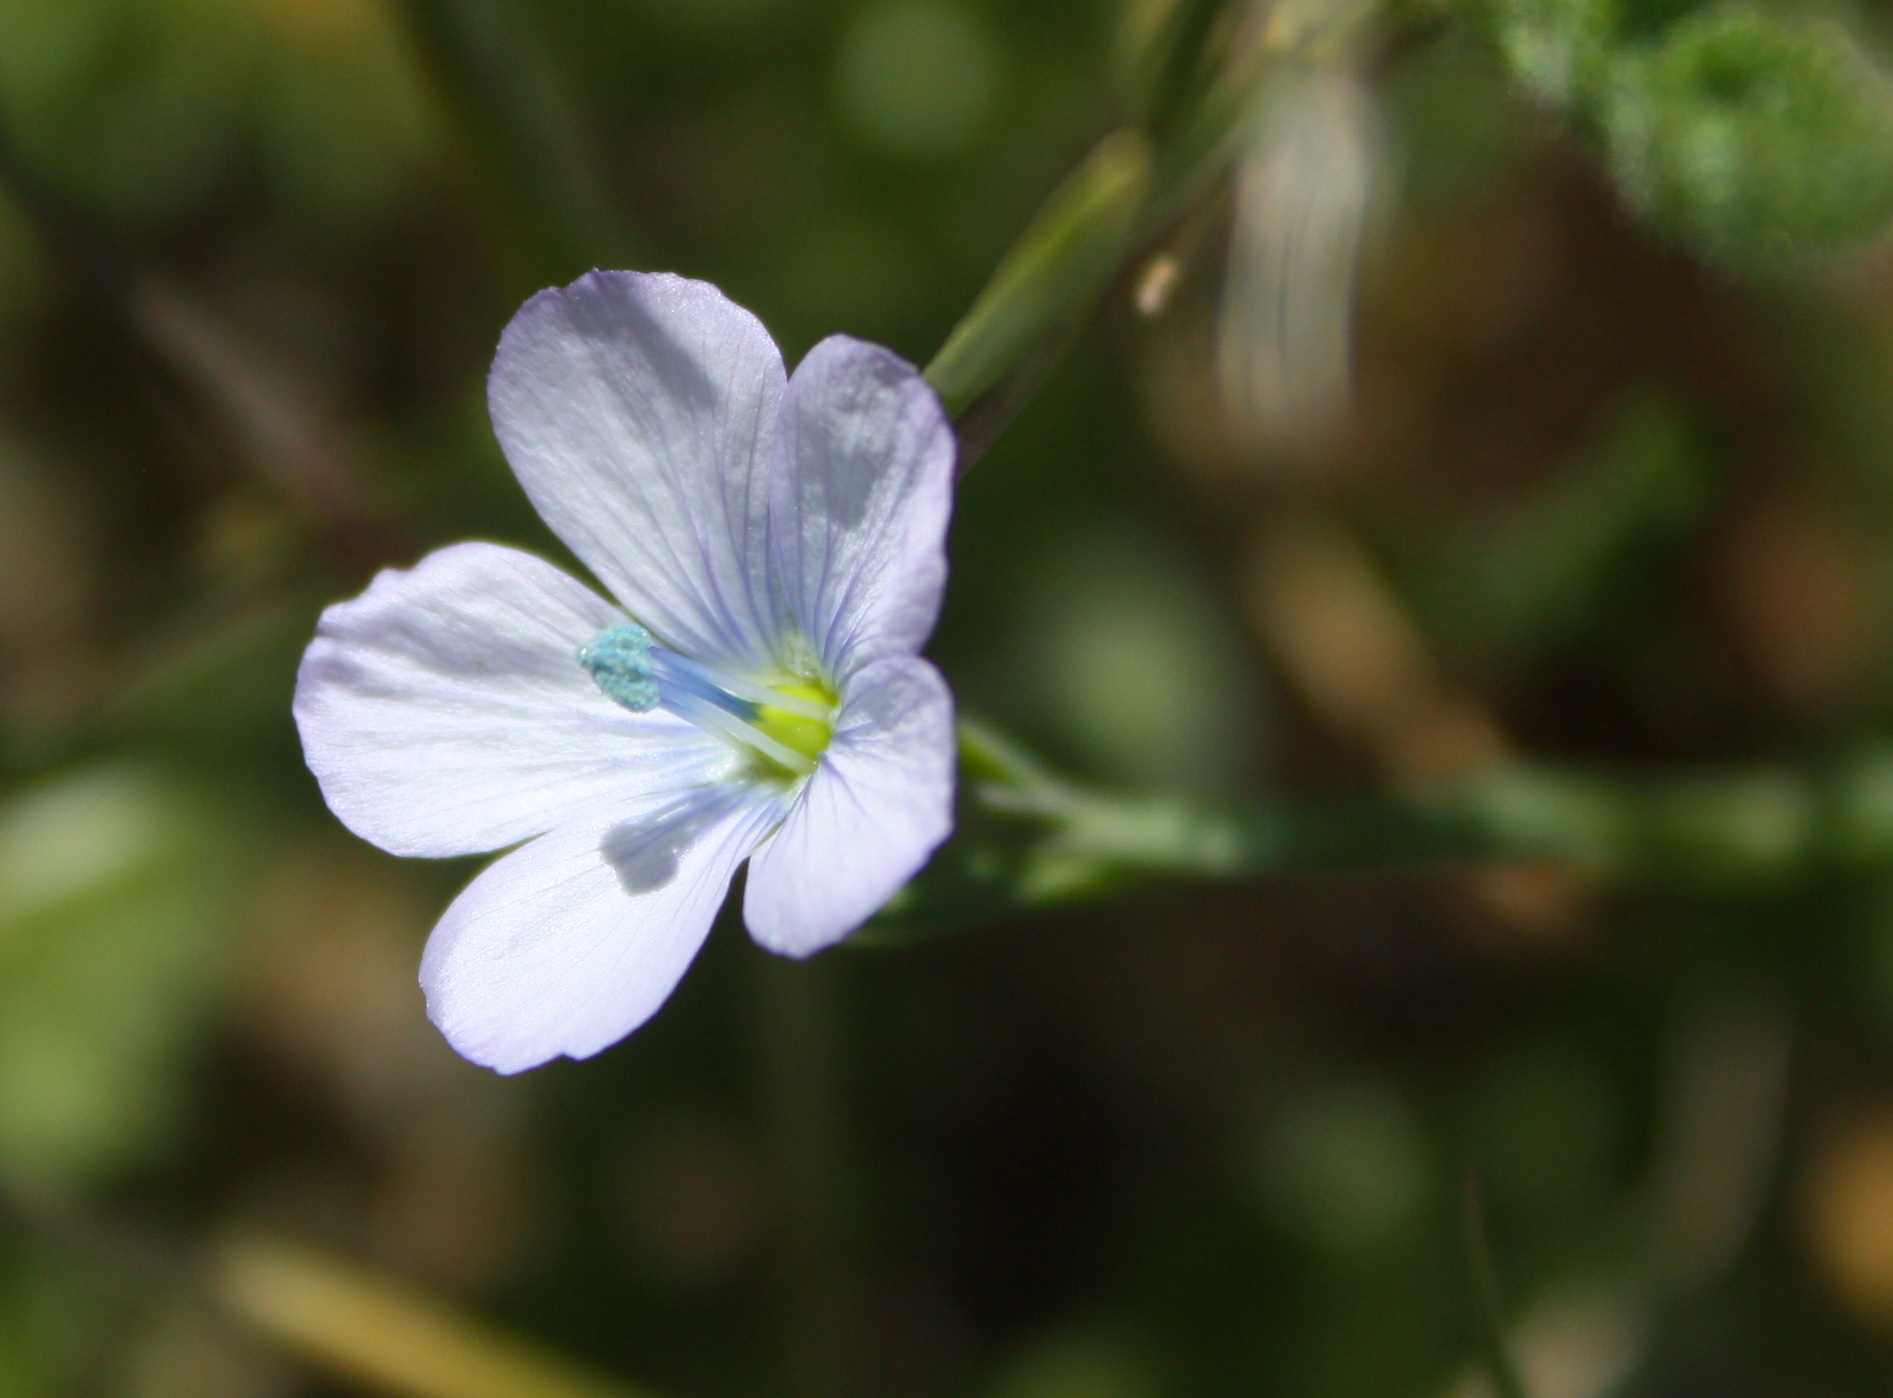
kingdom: Plantae
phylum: Tracheophyta
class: Magnoliopsida
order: Malpighiales
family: Linaceae
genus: Linum
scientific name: Linum bienne
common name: Pale flax
